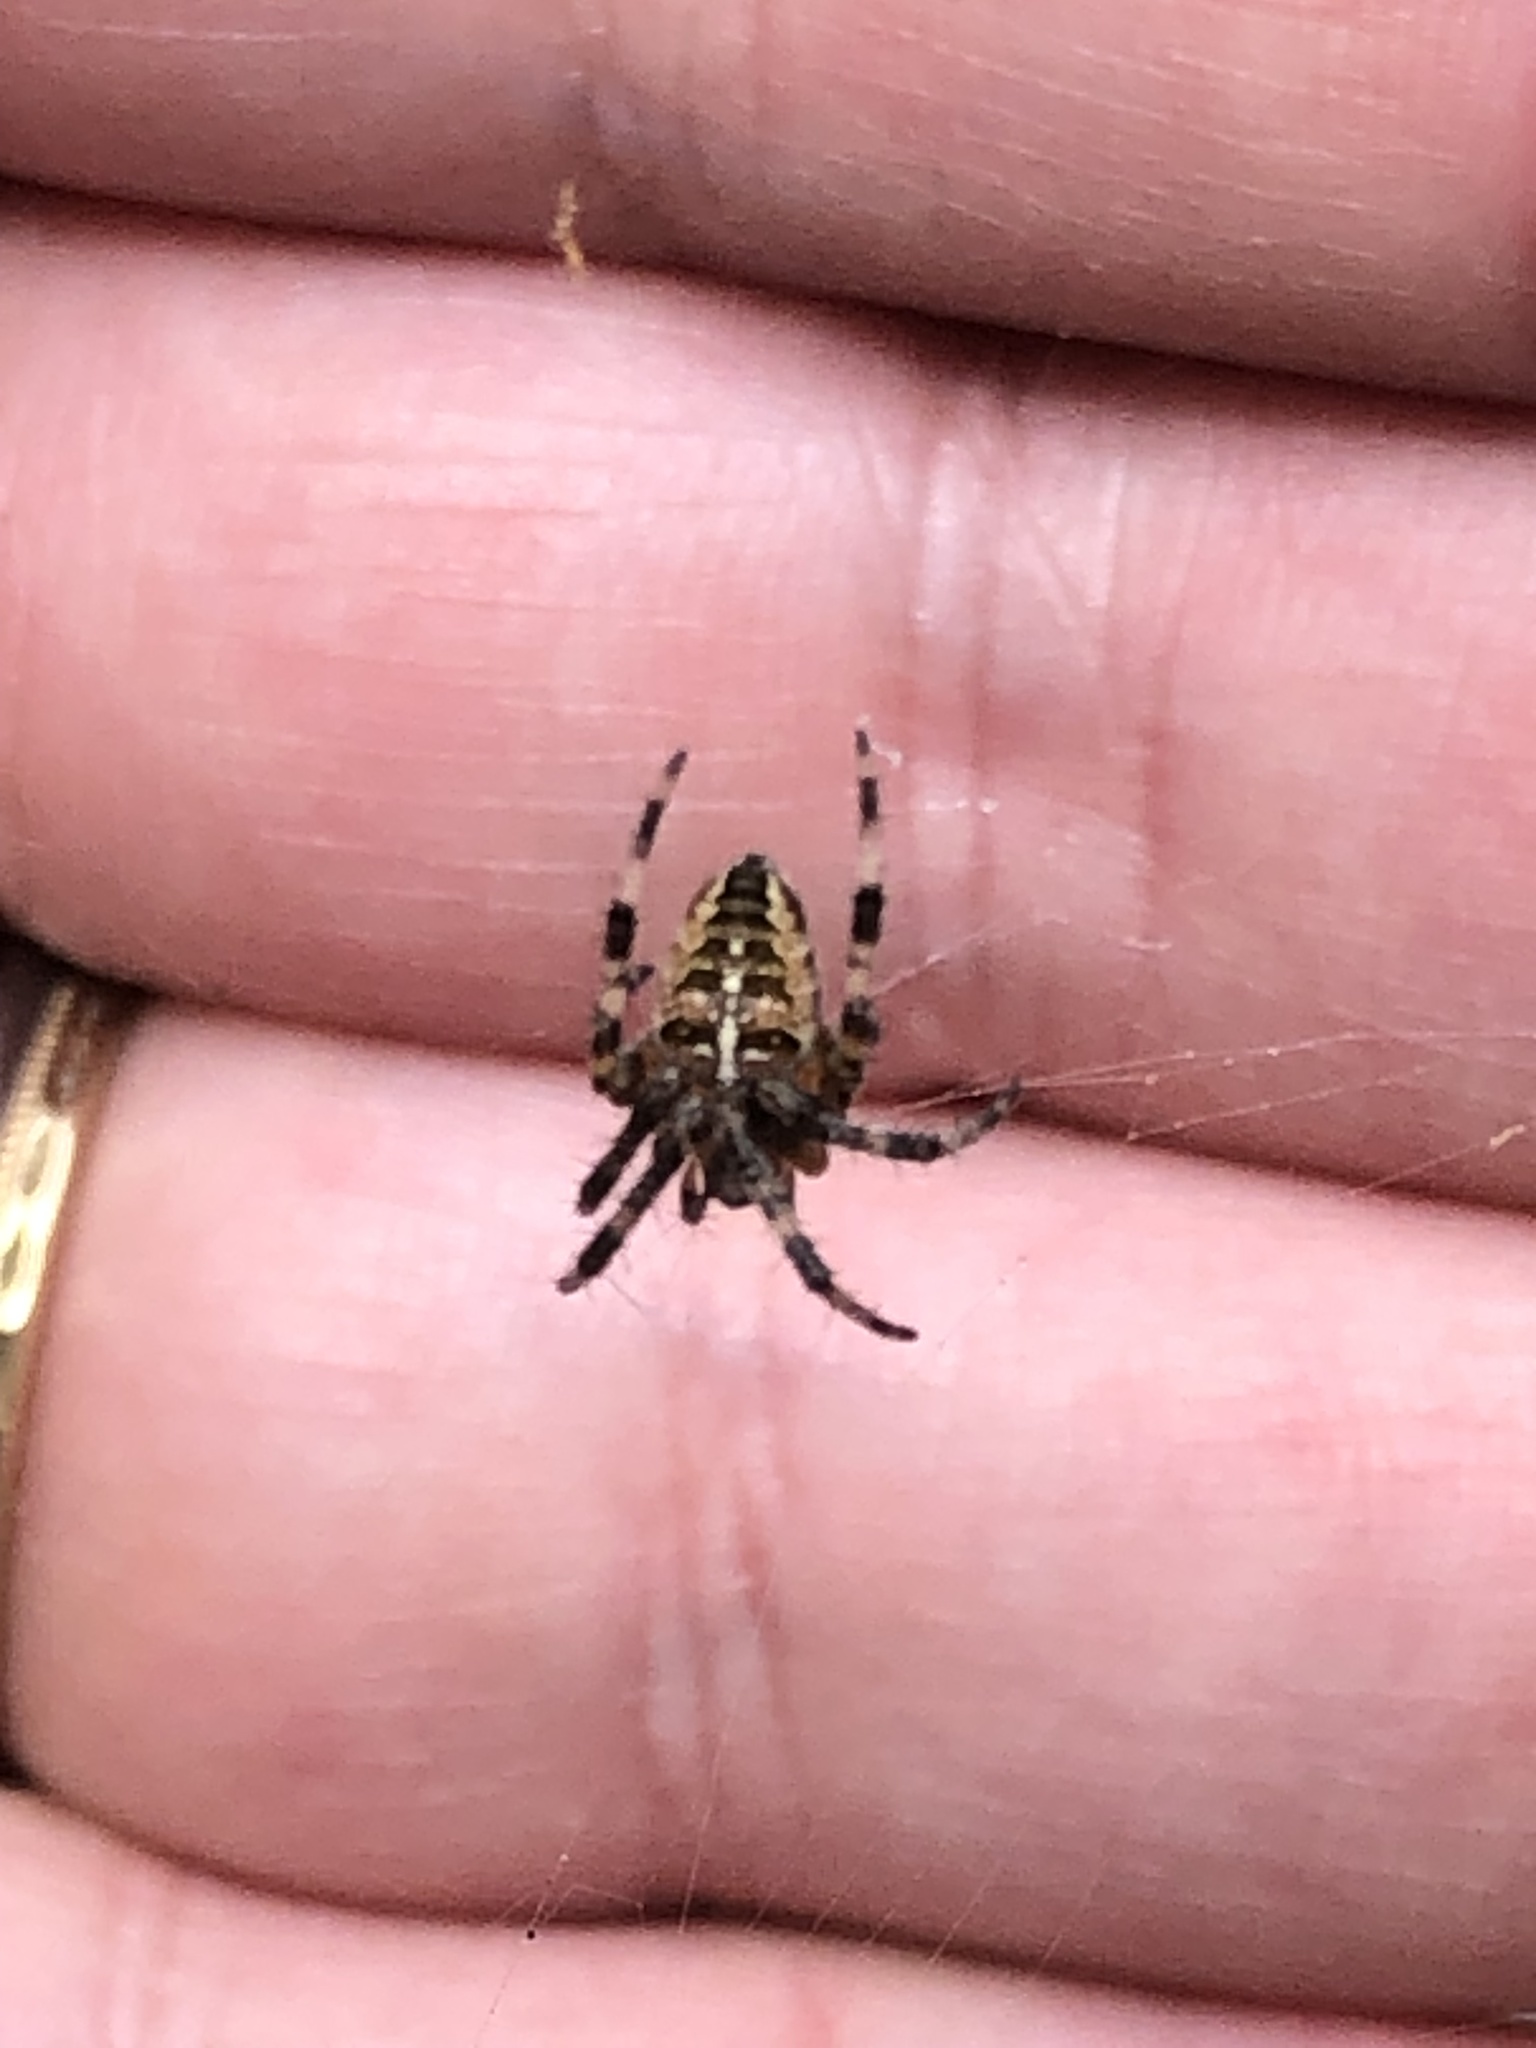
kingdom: Animalia
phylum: Arthropoda
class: Arachnida
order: Araneae
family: Araneidae
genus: Araneus
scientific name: Araneus diadematus
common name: Cross orbweaver
